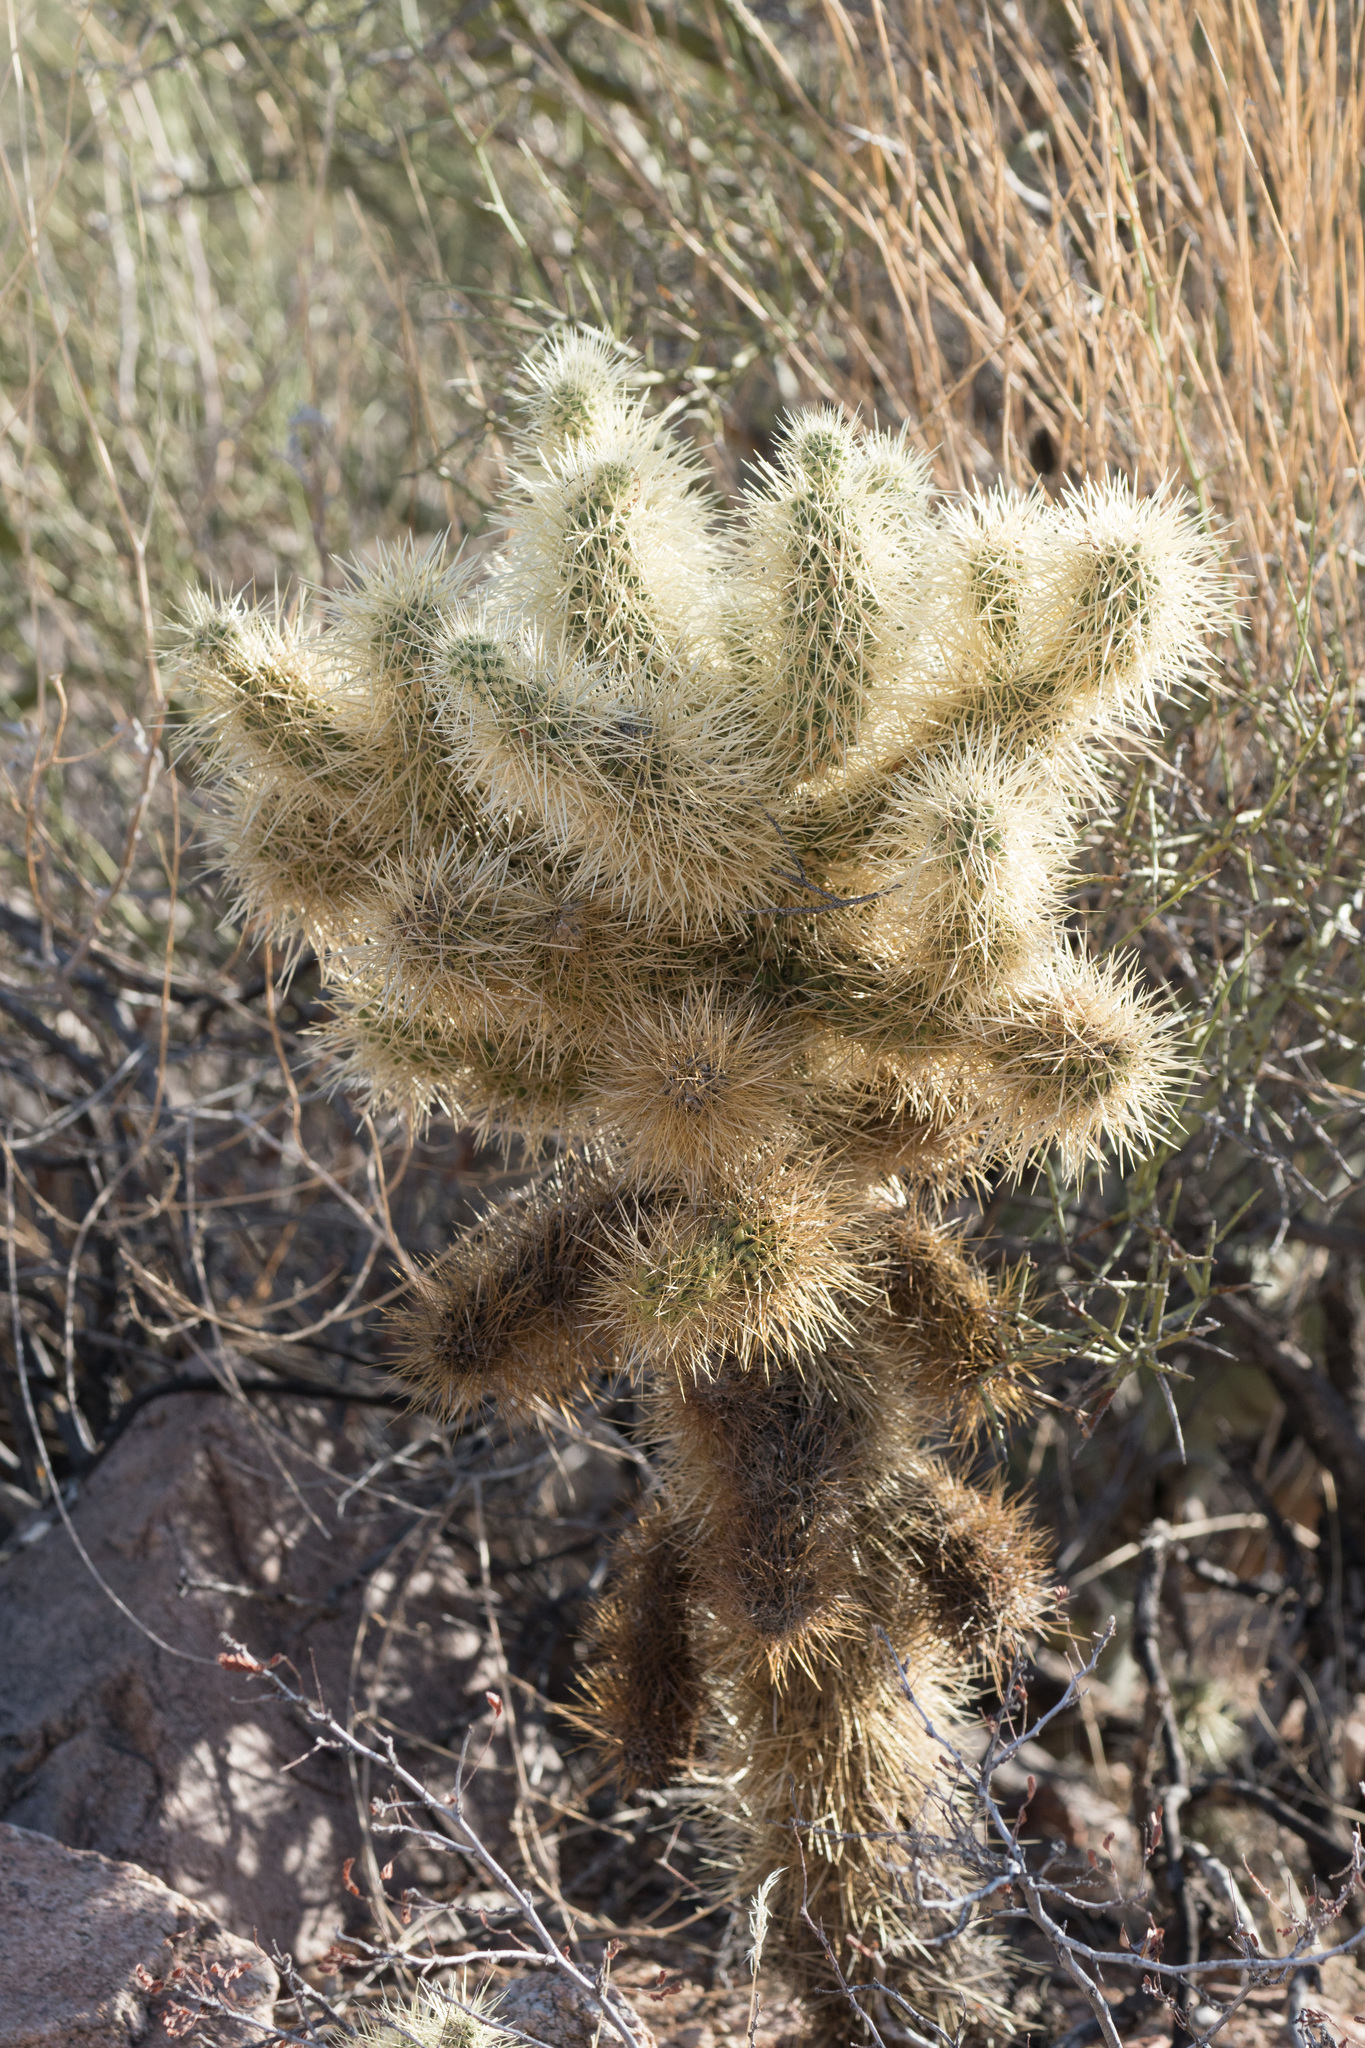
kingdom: Plantae
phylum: Tracheophyta
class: Magnoliopsida
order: Caryophyllales
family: Cactaceae
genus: Cylindropuntia
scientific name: Cylindropuntia fosbergii
